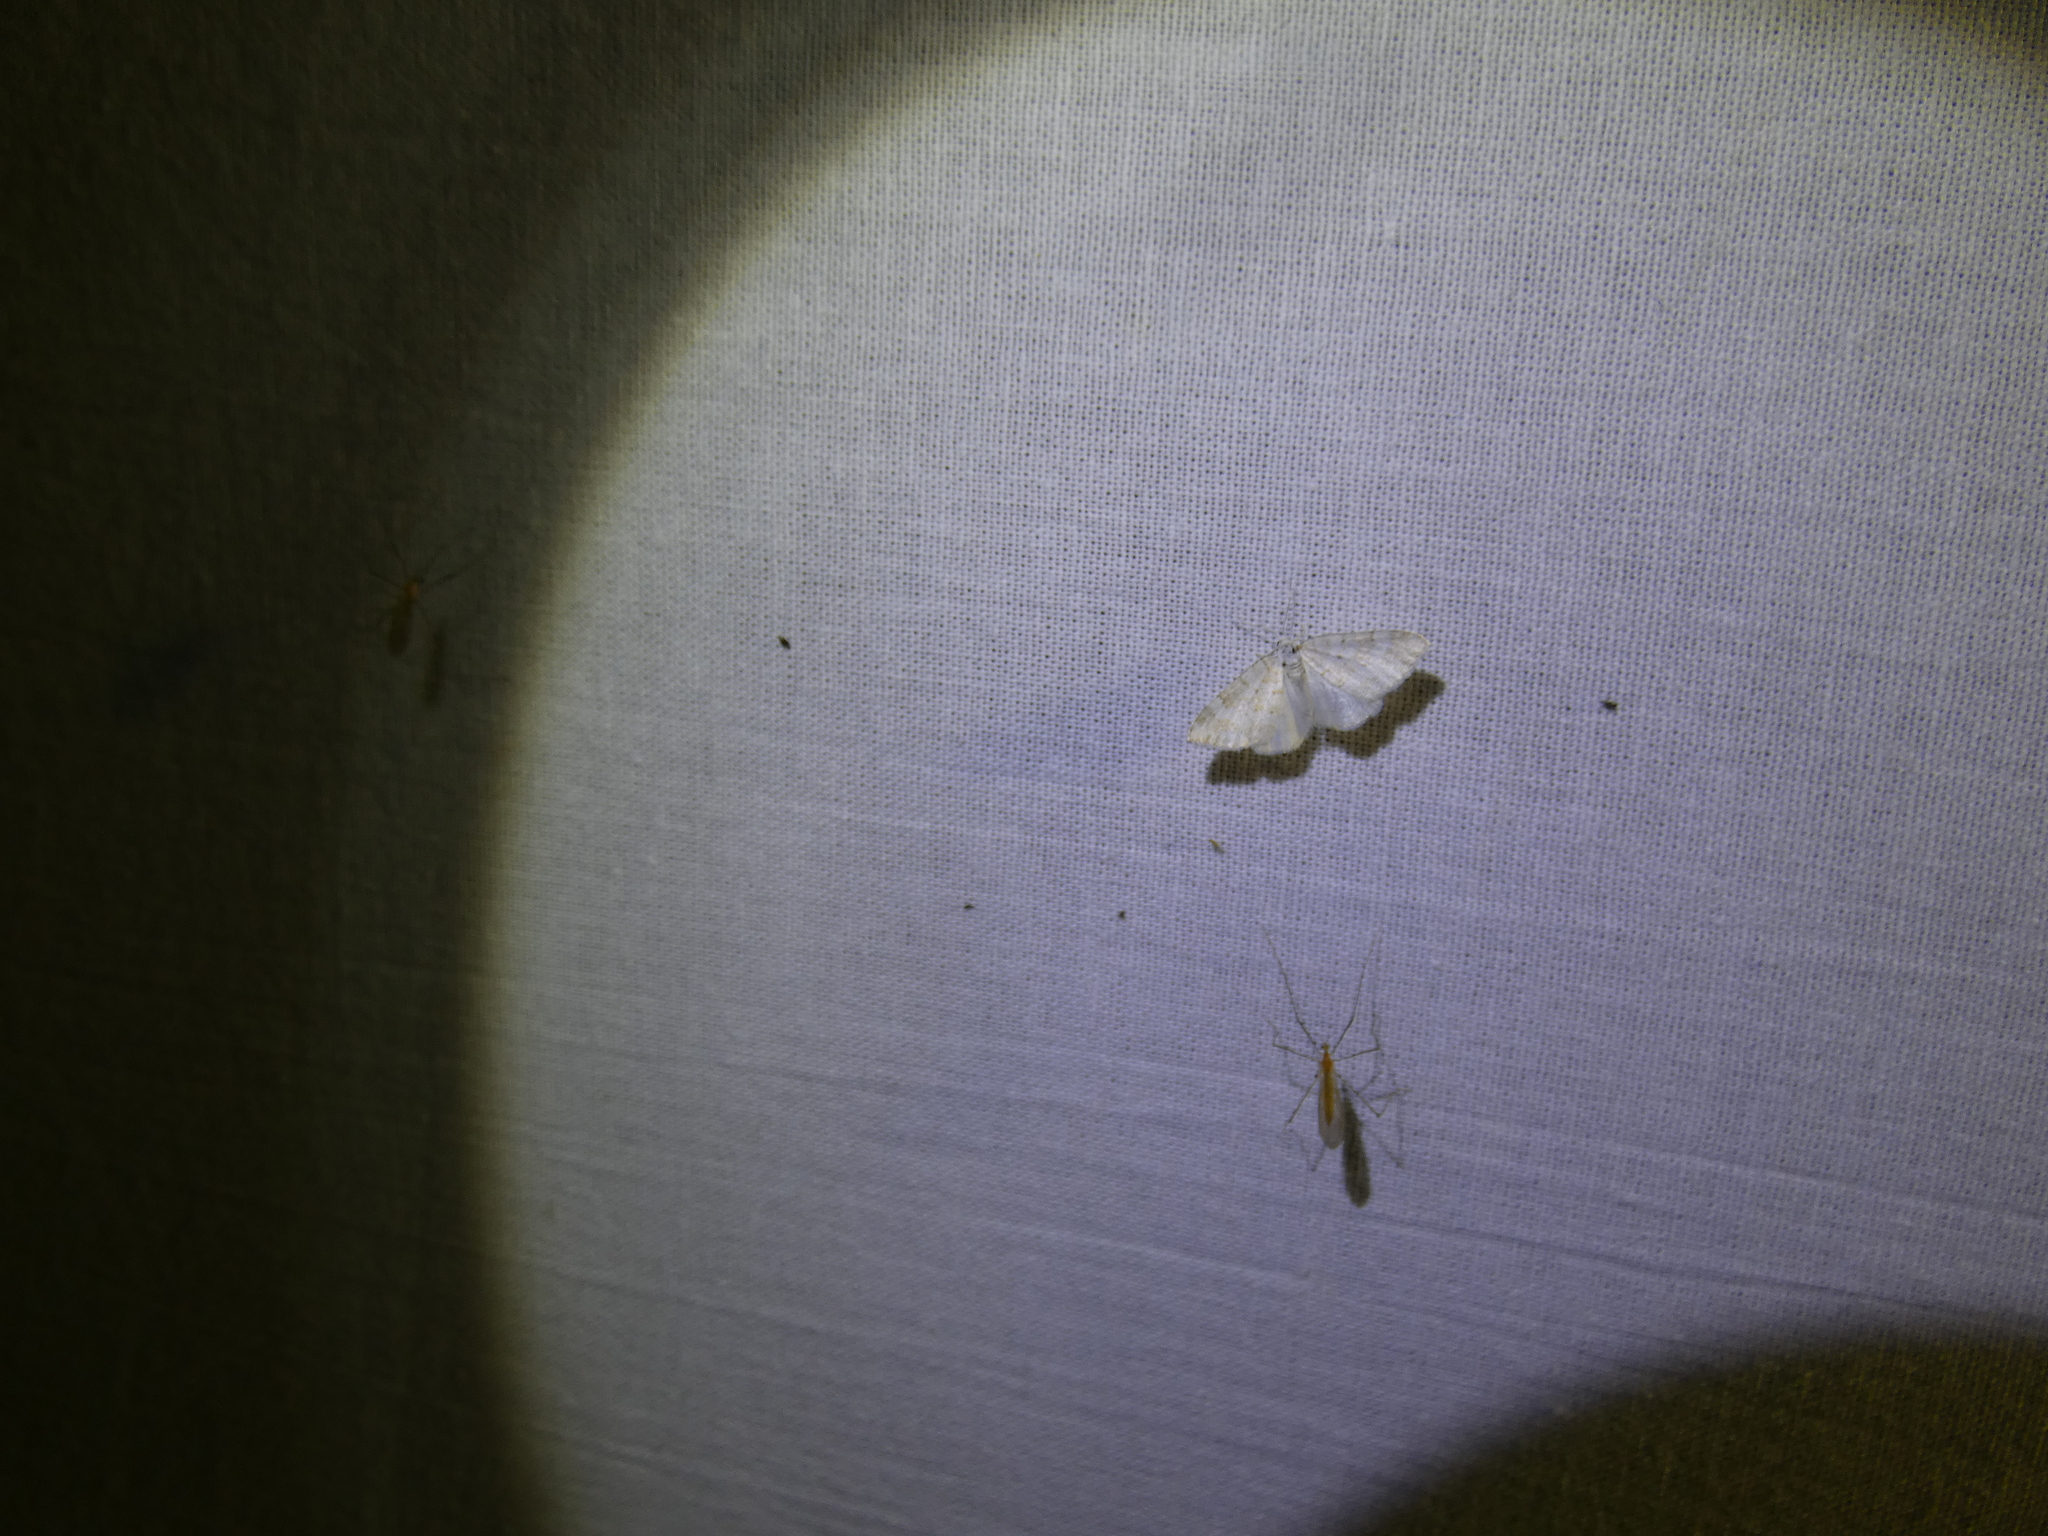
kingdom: Animalia
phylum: Arthropoda
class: Insecta
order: Lepidoptera
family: Geometridae
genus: Perizoma
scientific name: Perizoma albulata
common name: Grass rivulet
